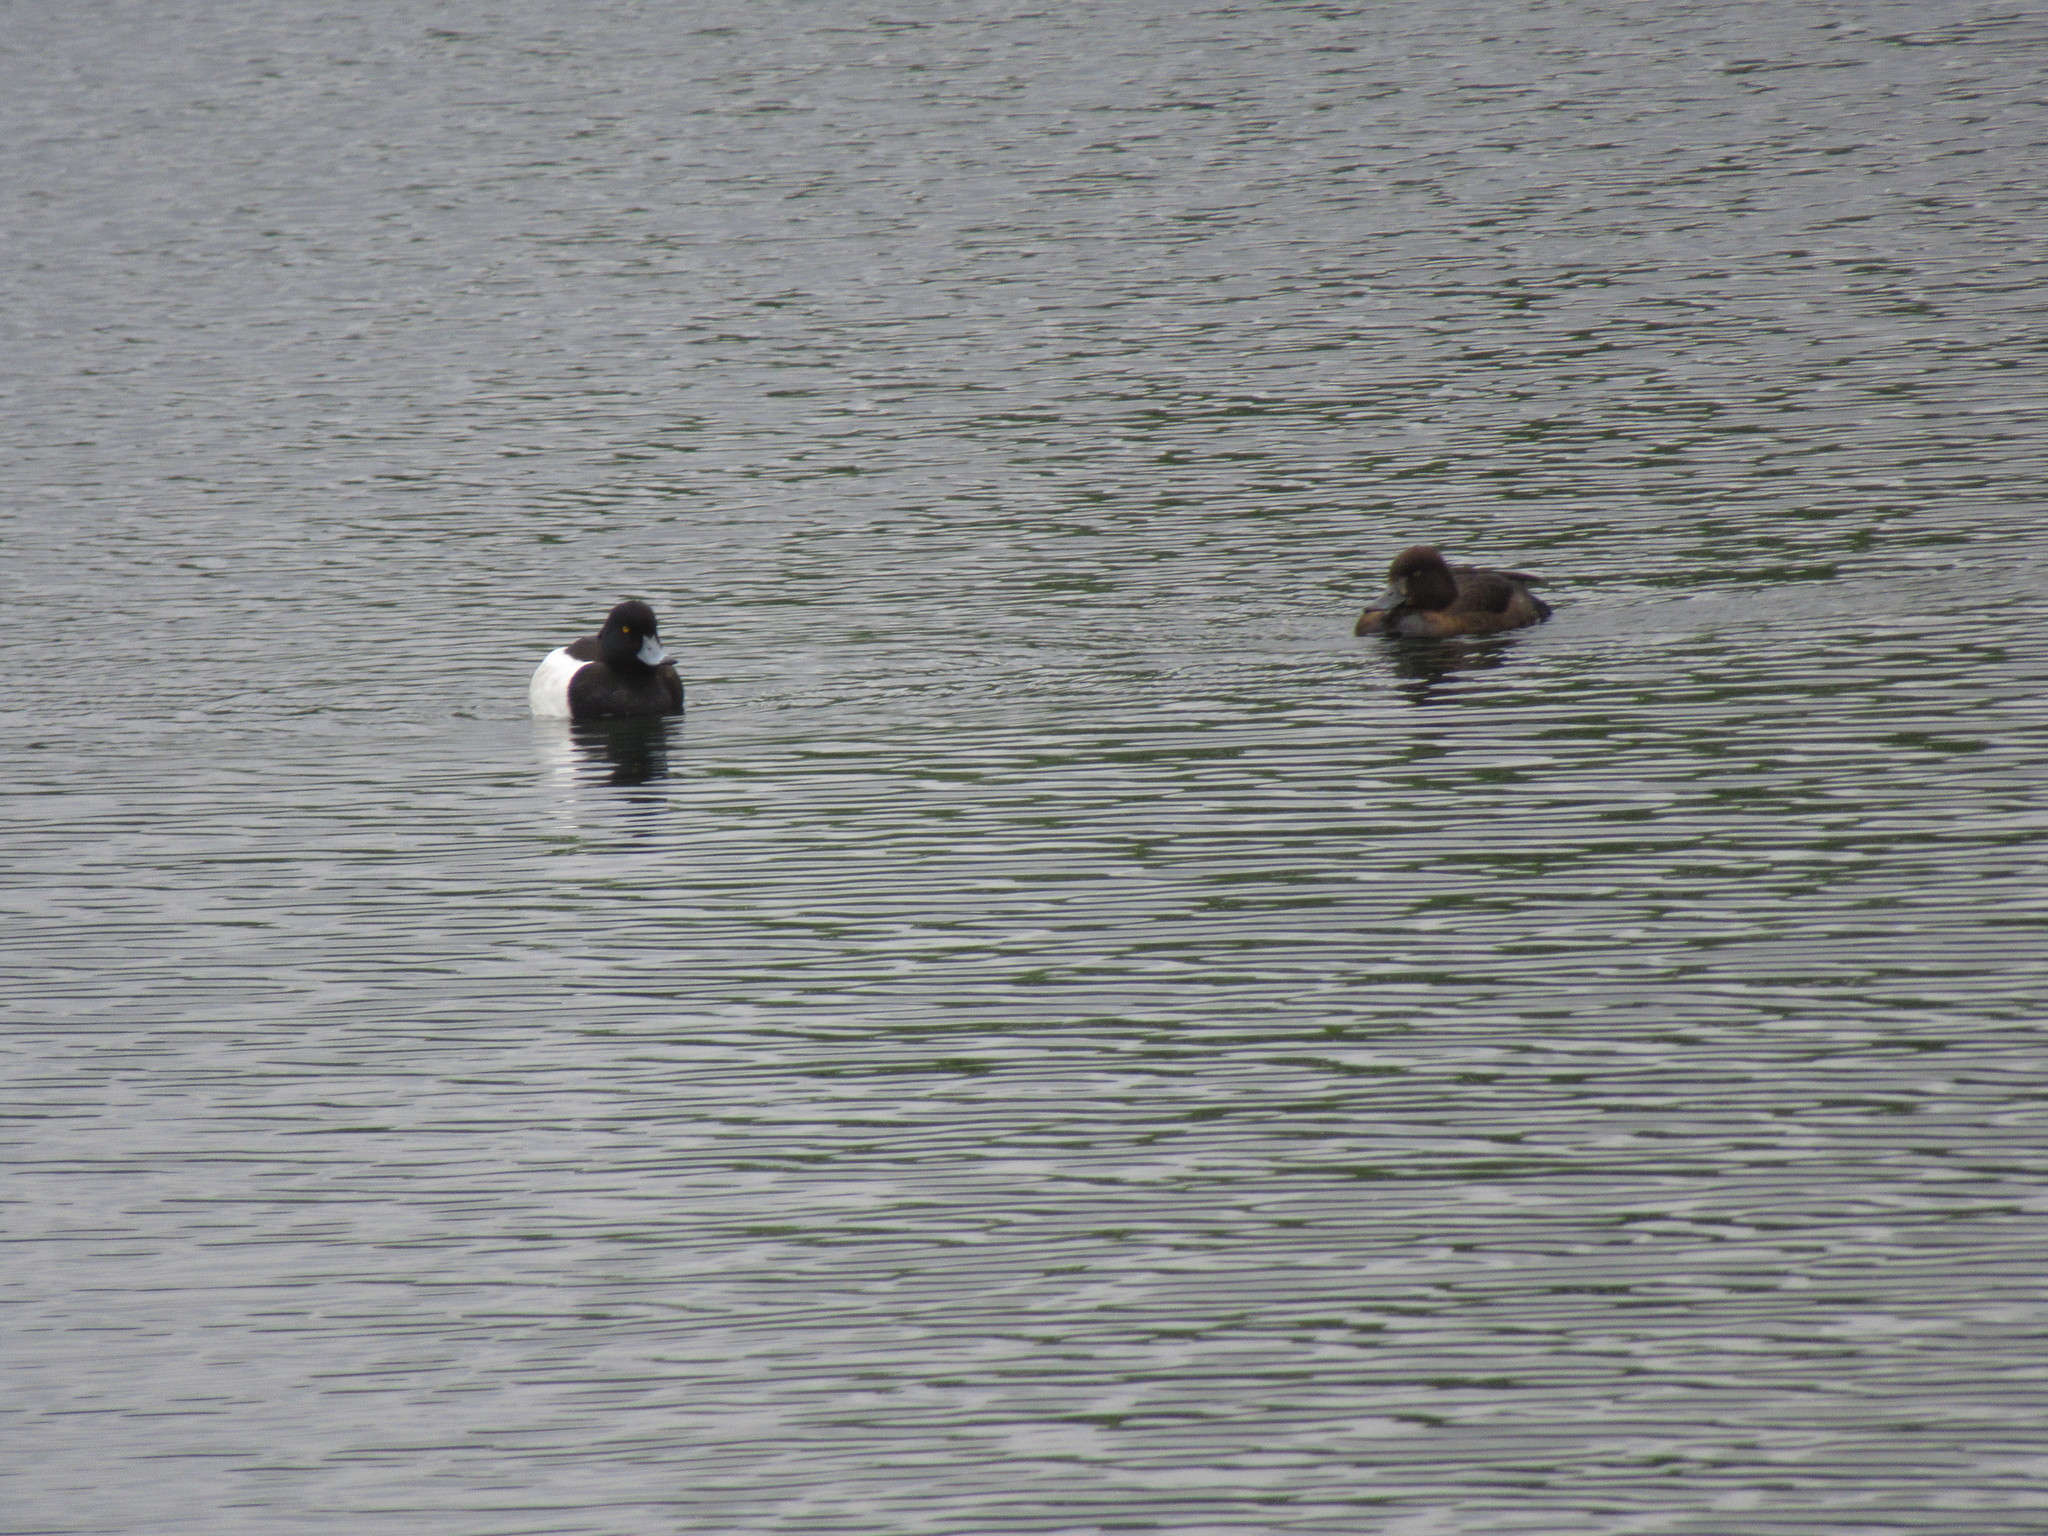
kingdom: Animalia
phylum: Chordata
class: Aves
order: Anseriformes
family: Anatidae
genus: Aythya
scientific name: Aythya fuligula
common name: Tufted duck
